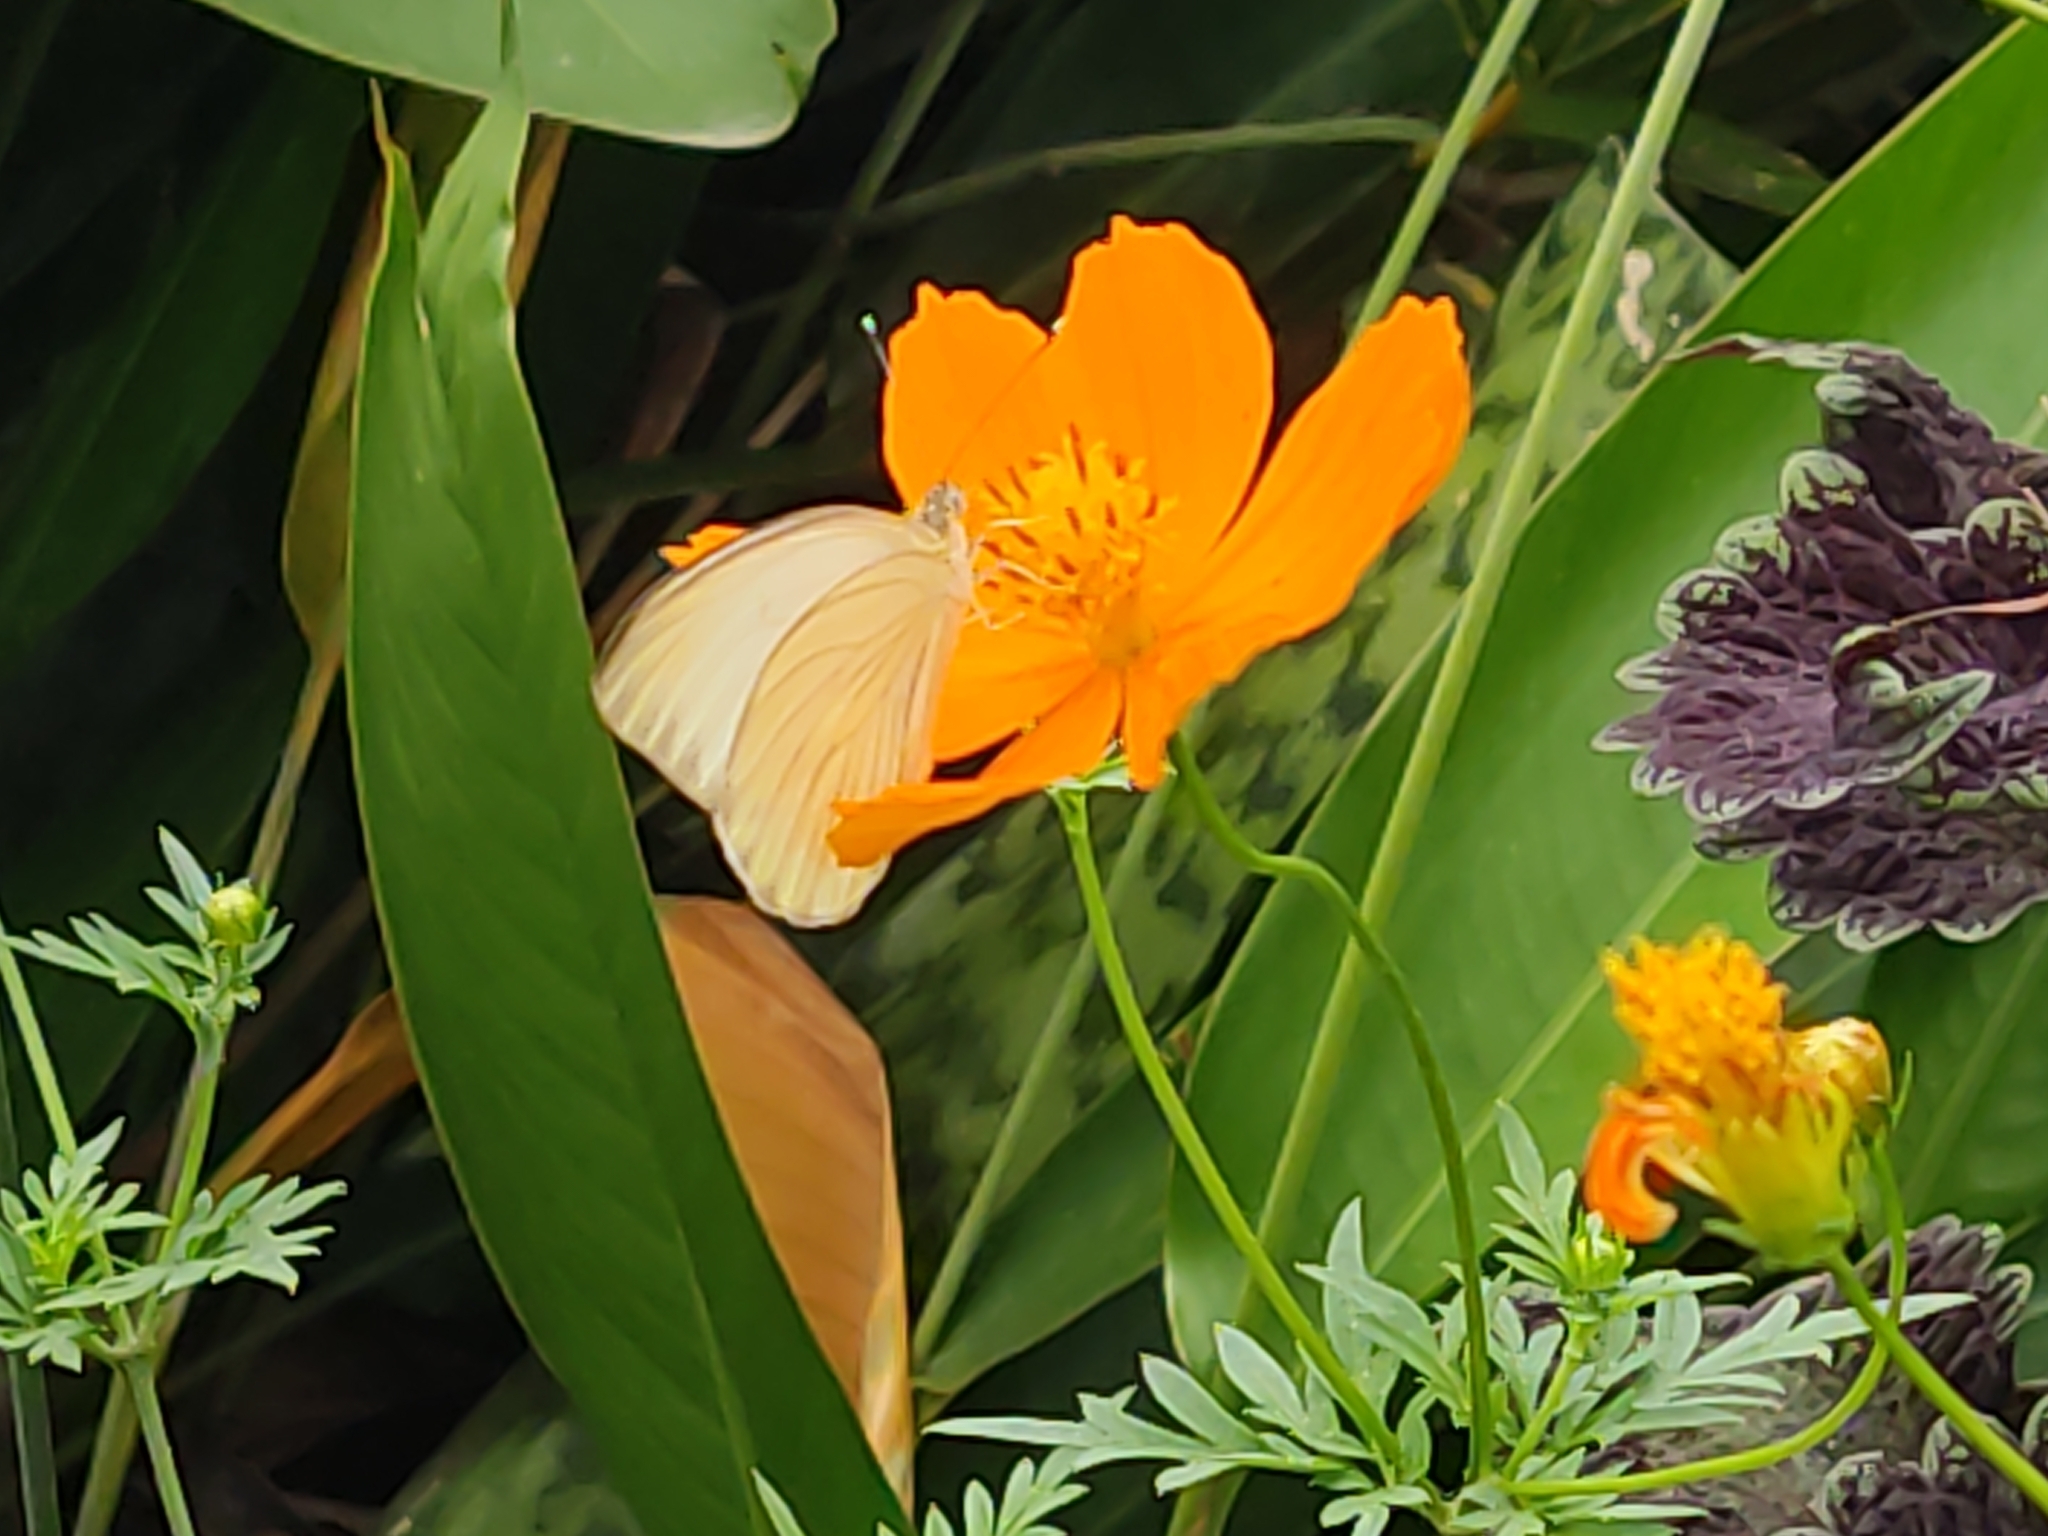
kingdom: Animalia
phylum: Arthropoda
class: Insecta
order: Lepidoptera
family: Pieridae
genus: Ascia
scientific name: Ascia monuste
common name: Great southern white
